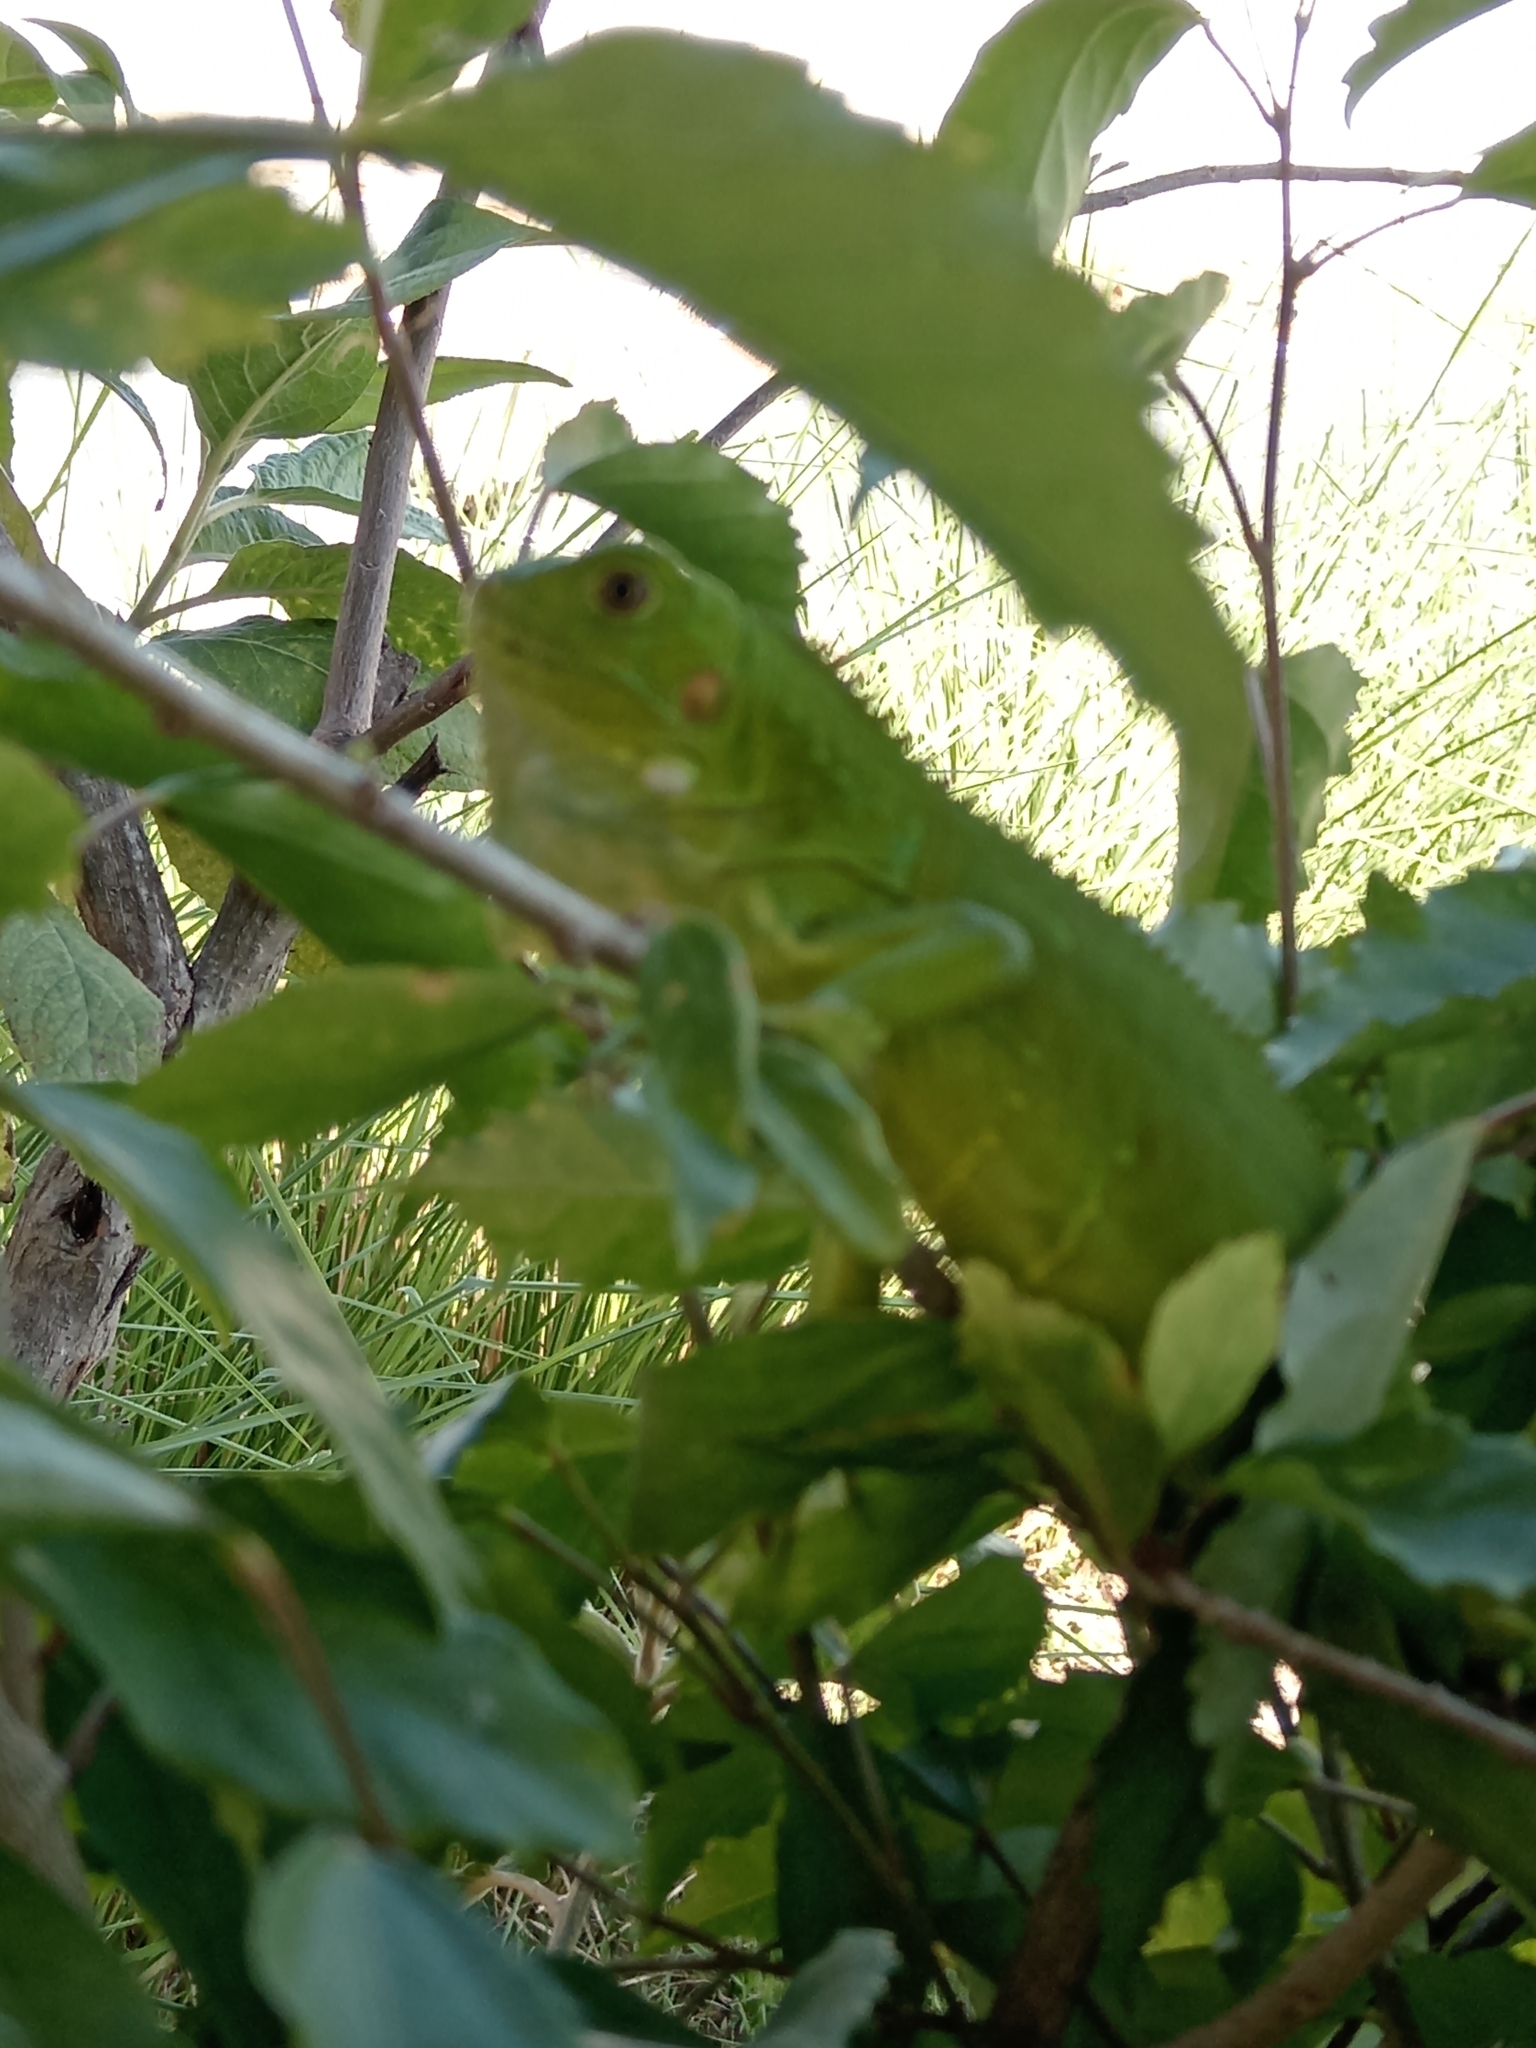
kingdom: Animalia
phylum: Chordata
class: Squamata
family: Iguanidae
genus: Iguana
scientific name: Iguana iguana
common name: Green iguana
